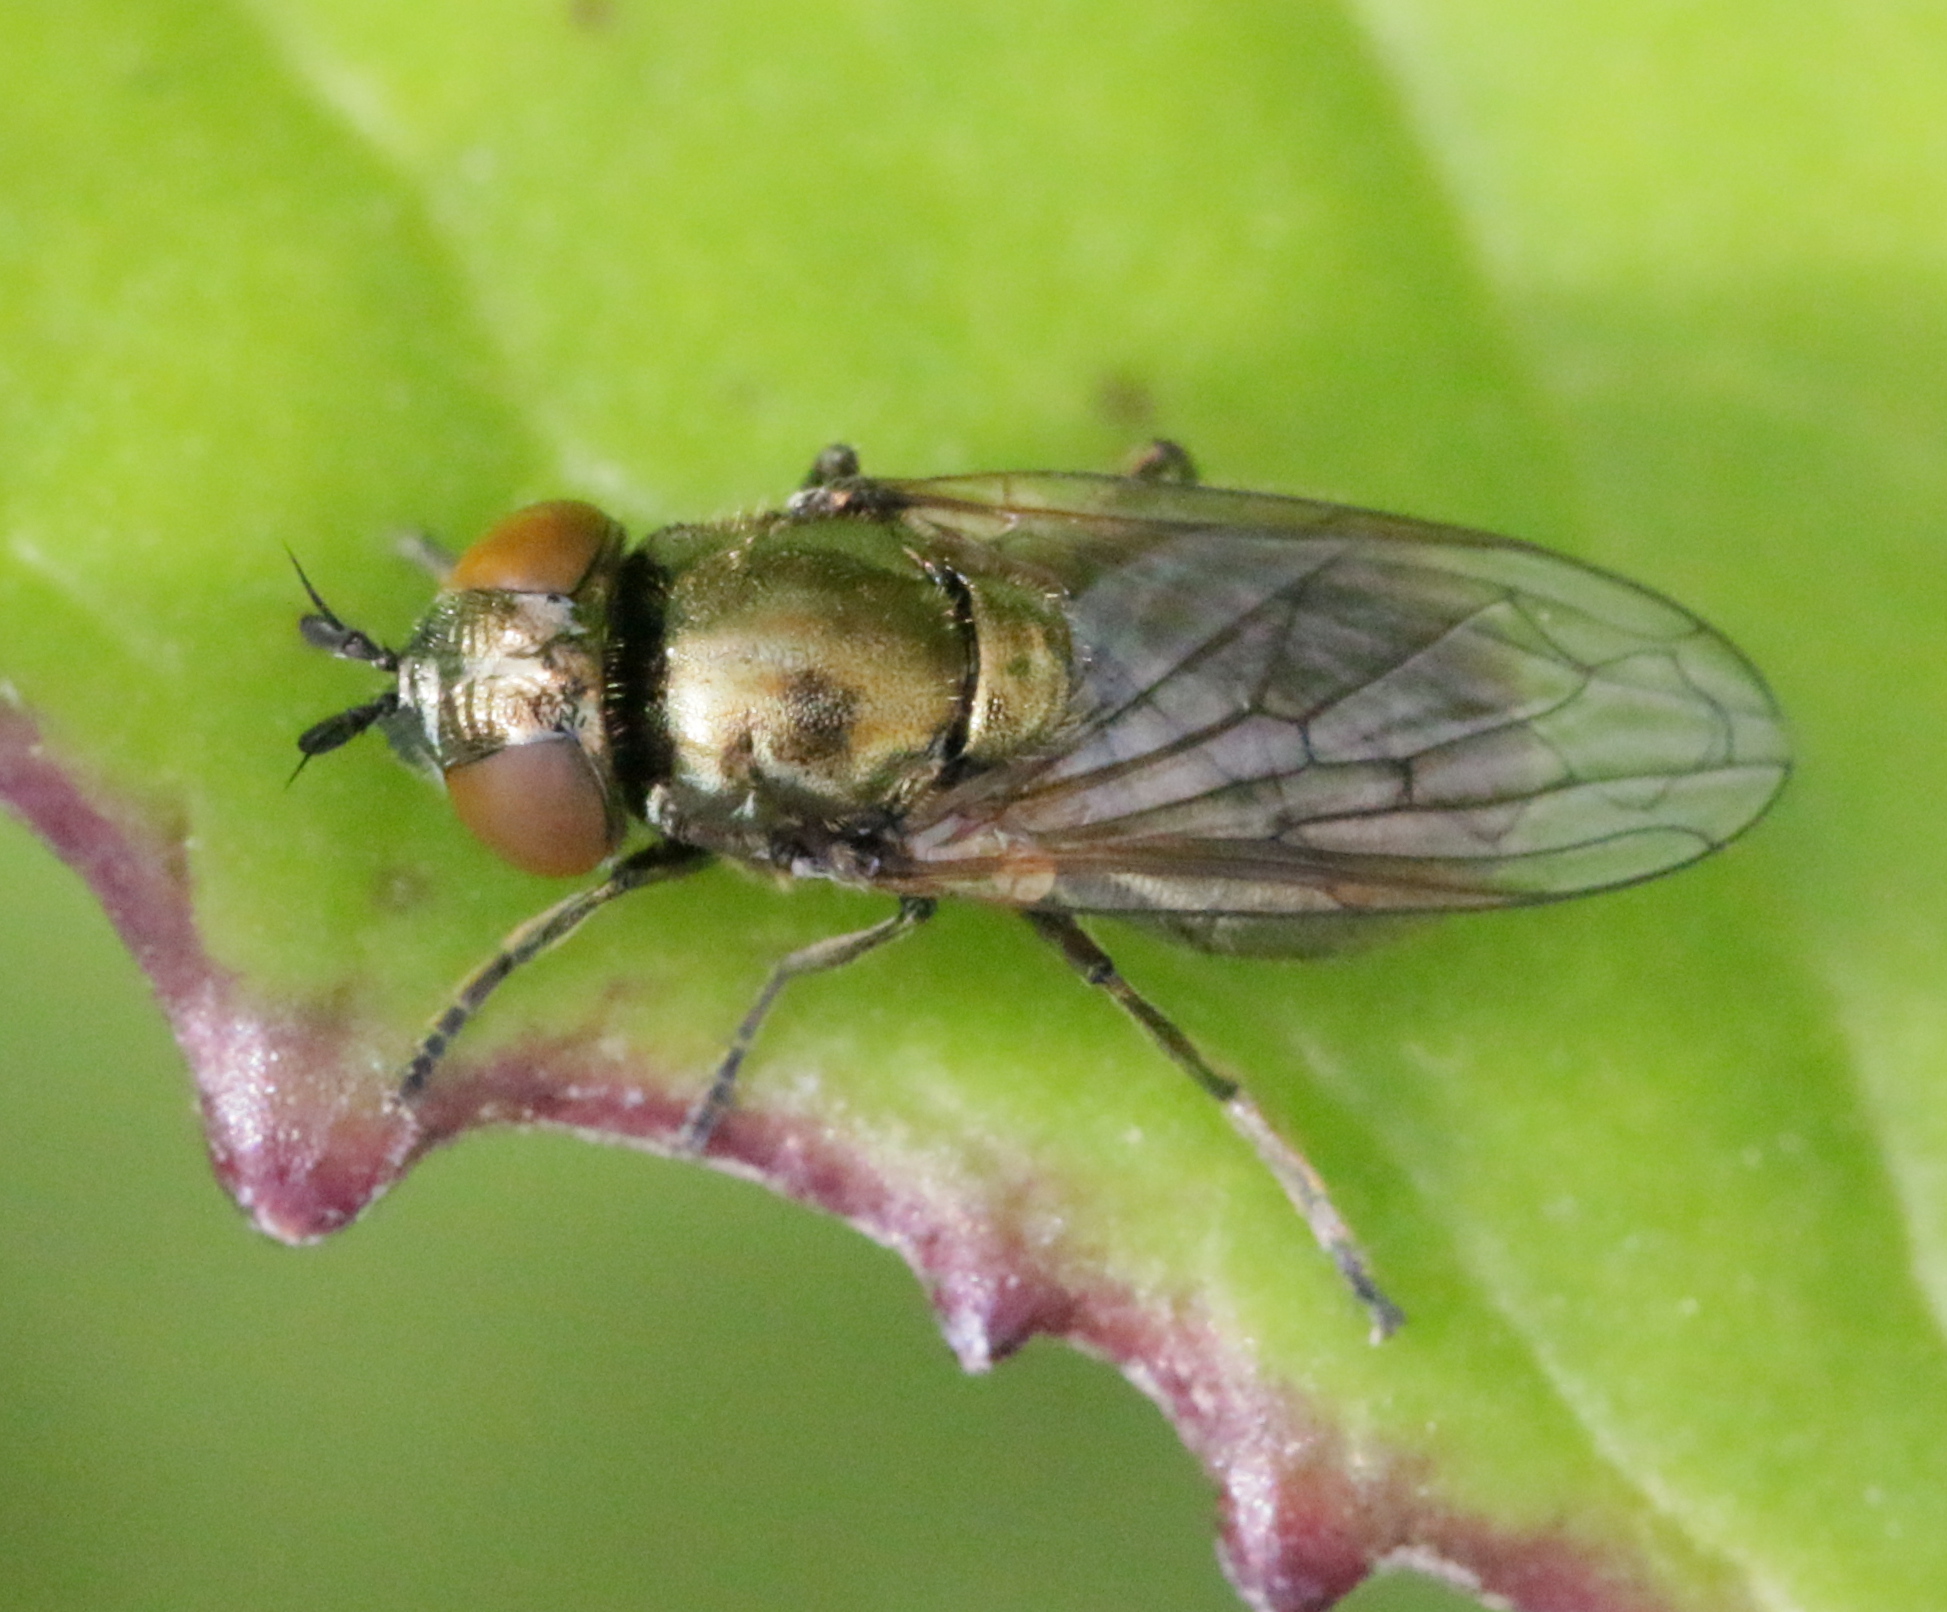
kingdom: Animalia
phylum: Arthropoda
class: Insecta
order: Diptera
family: Syrphidae
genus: Lejogaster
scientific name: Lejogaster metallina
